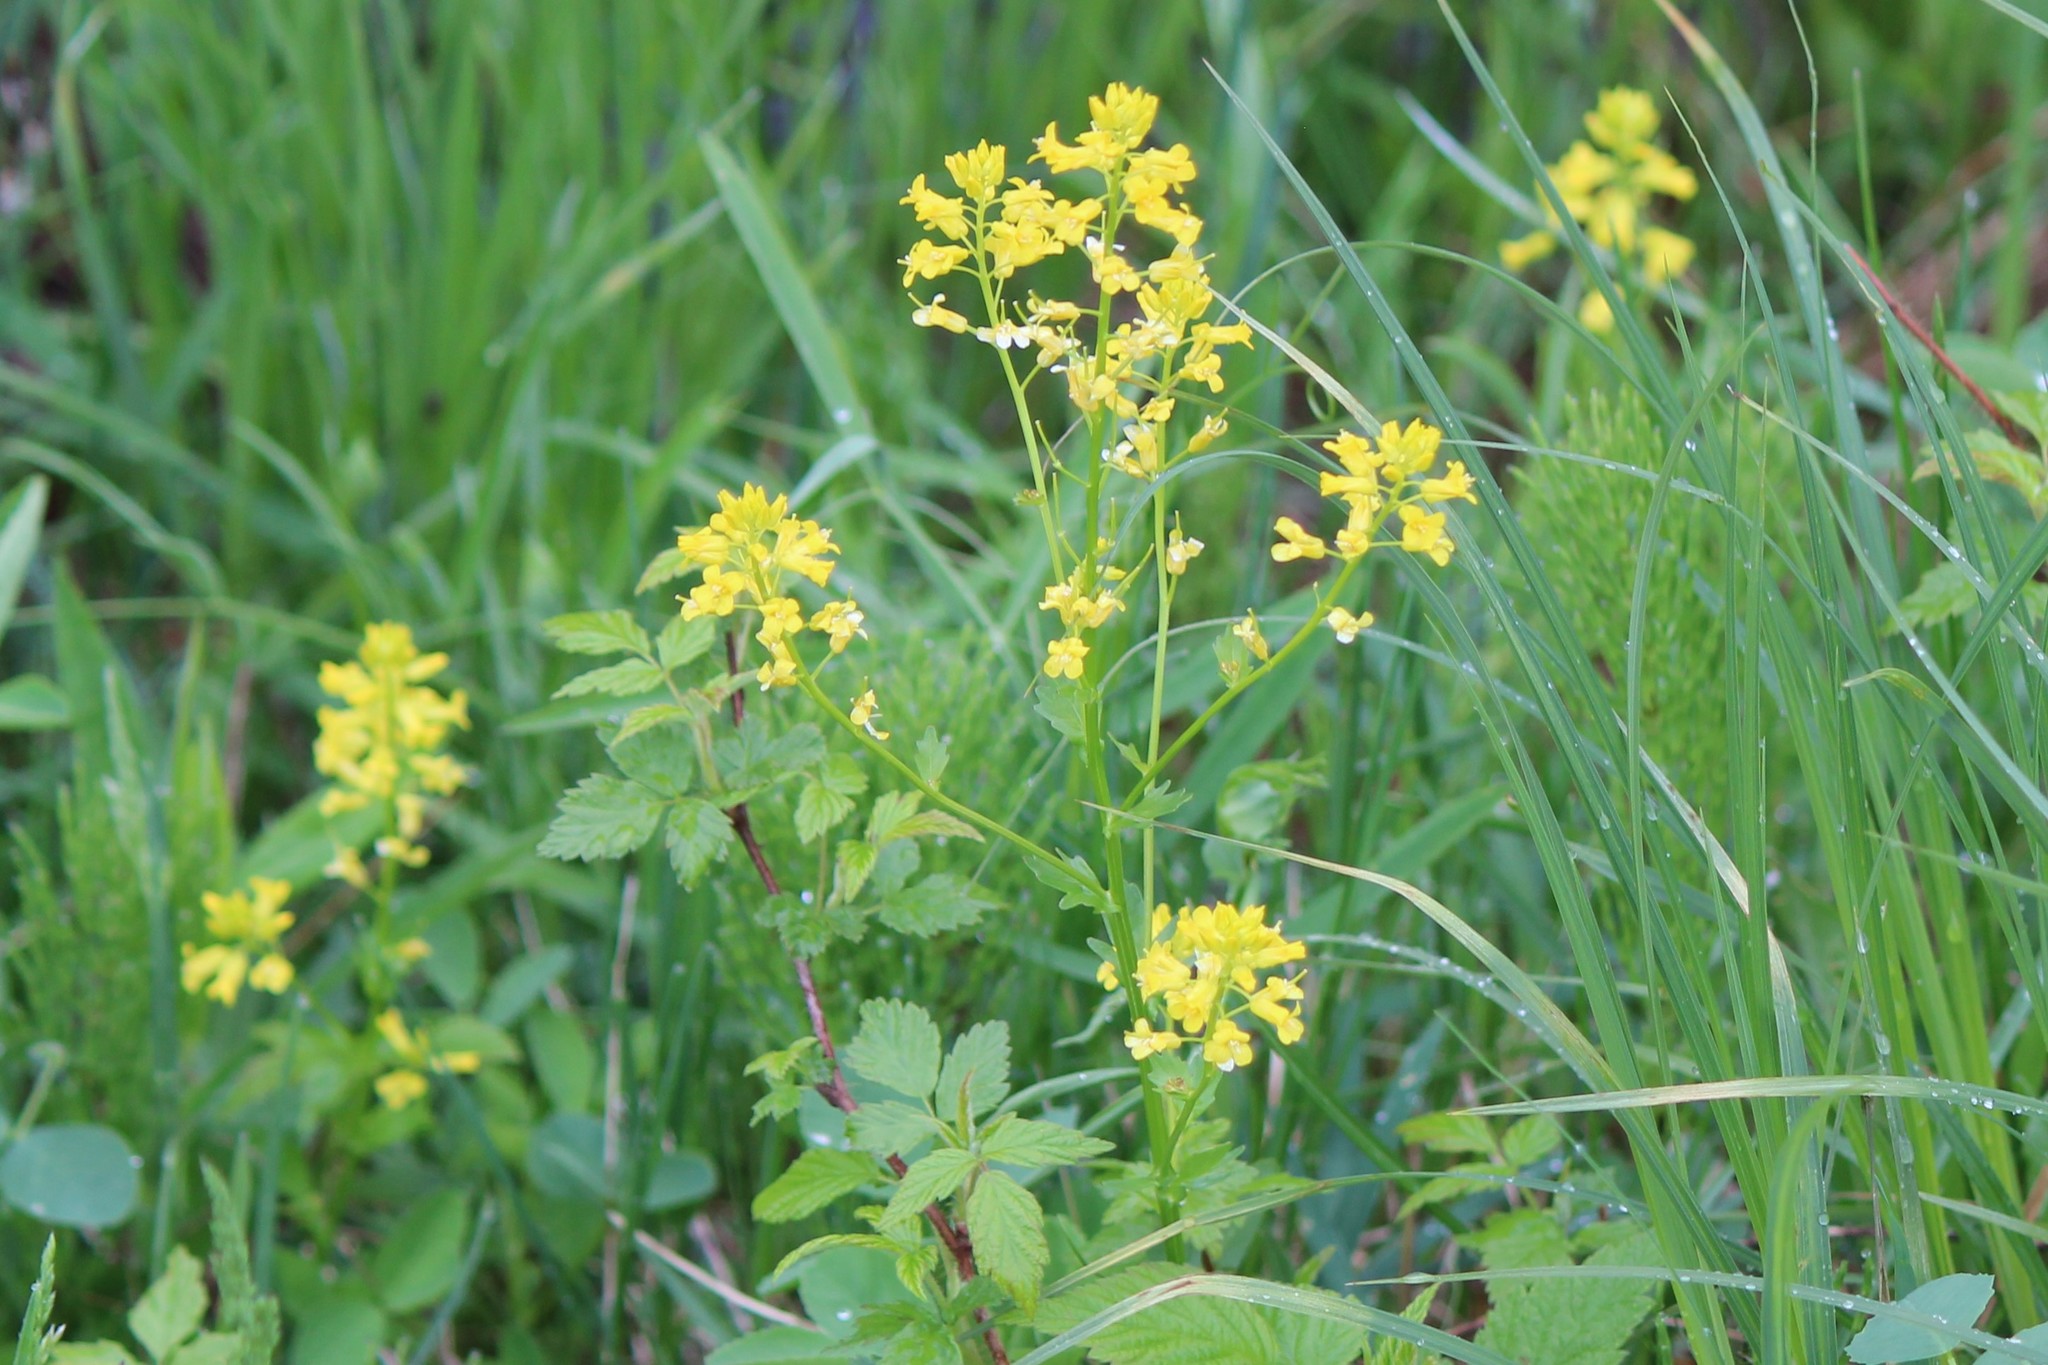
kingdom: Plantae
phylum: Tracheophyta
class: Magnoliopsida
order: Brassicales
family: Brassicaceae
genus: Barbarea
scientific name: Barbarea vulgaris
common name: Cressy-greens
